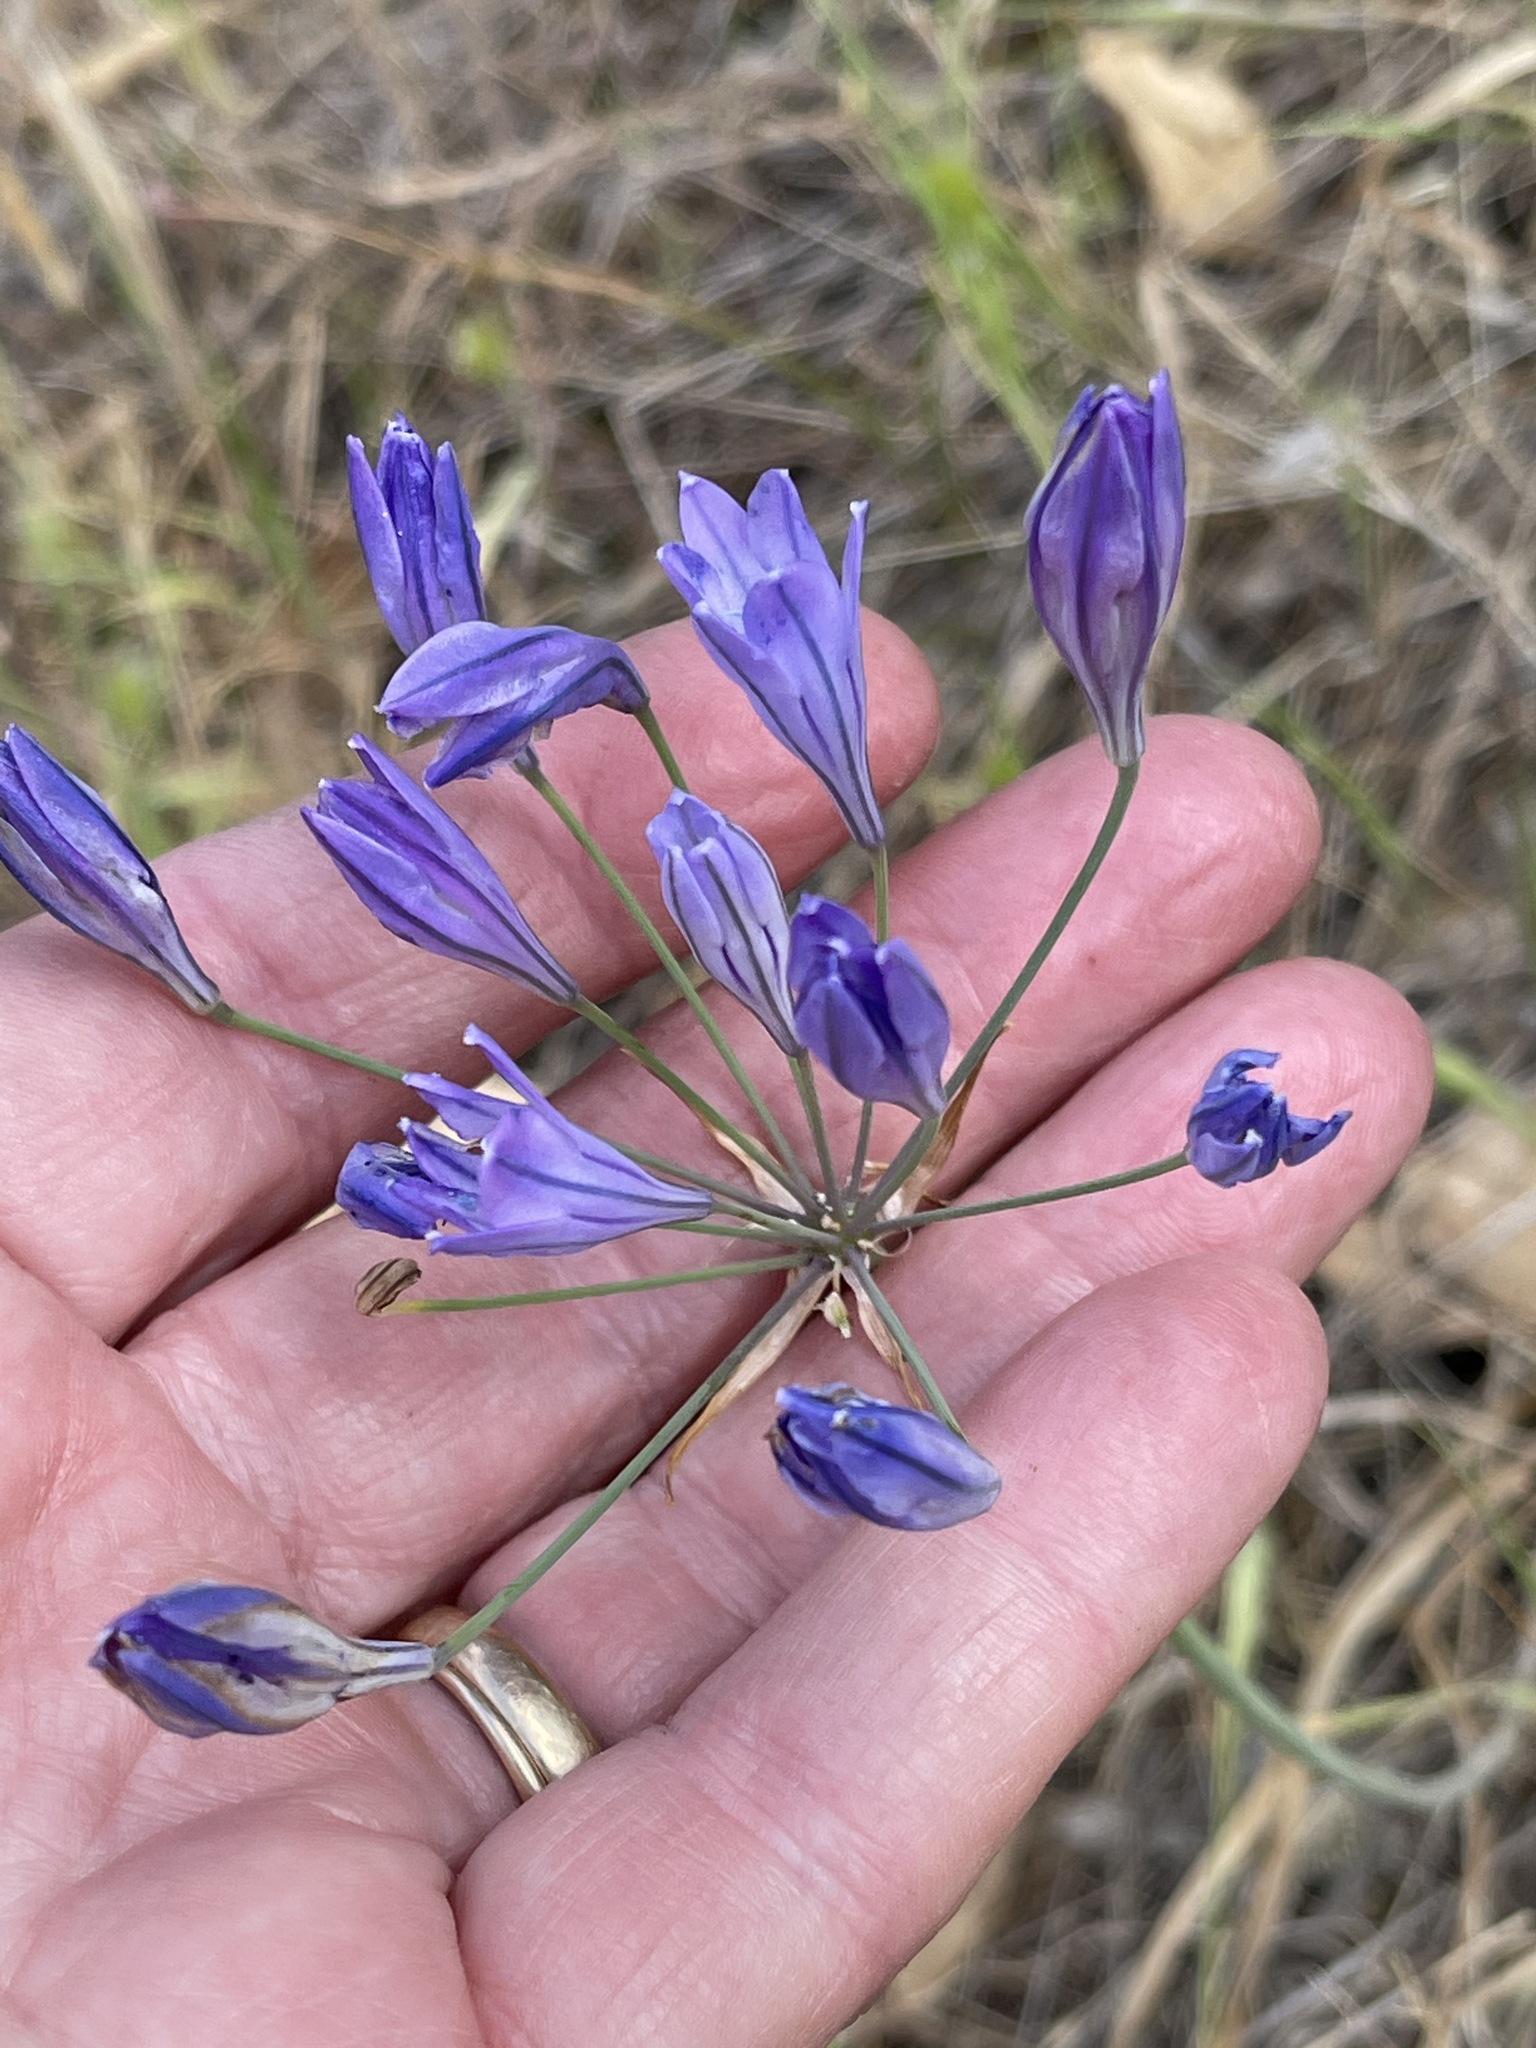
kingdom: Plantae
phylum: Tracheophyta
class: Liliopsida
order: Asparagales
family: Asparagaceae
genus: Triteleia
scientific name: Triteleia laxa
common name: Triplet-lily
